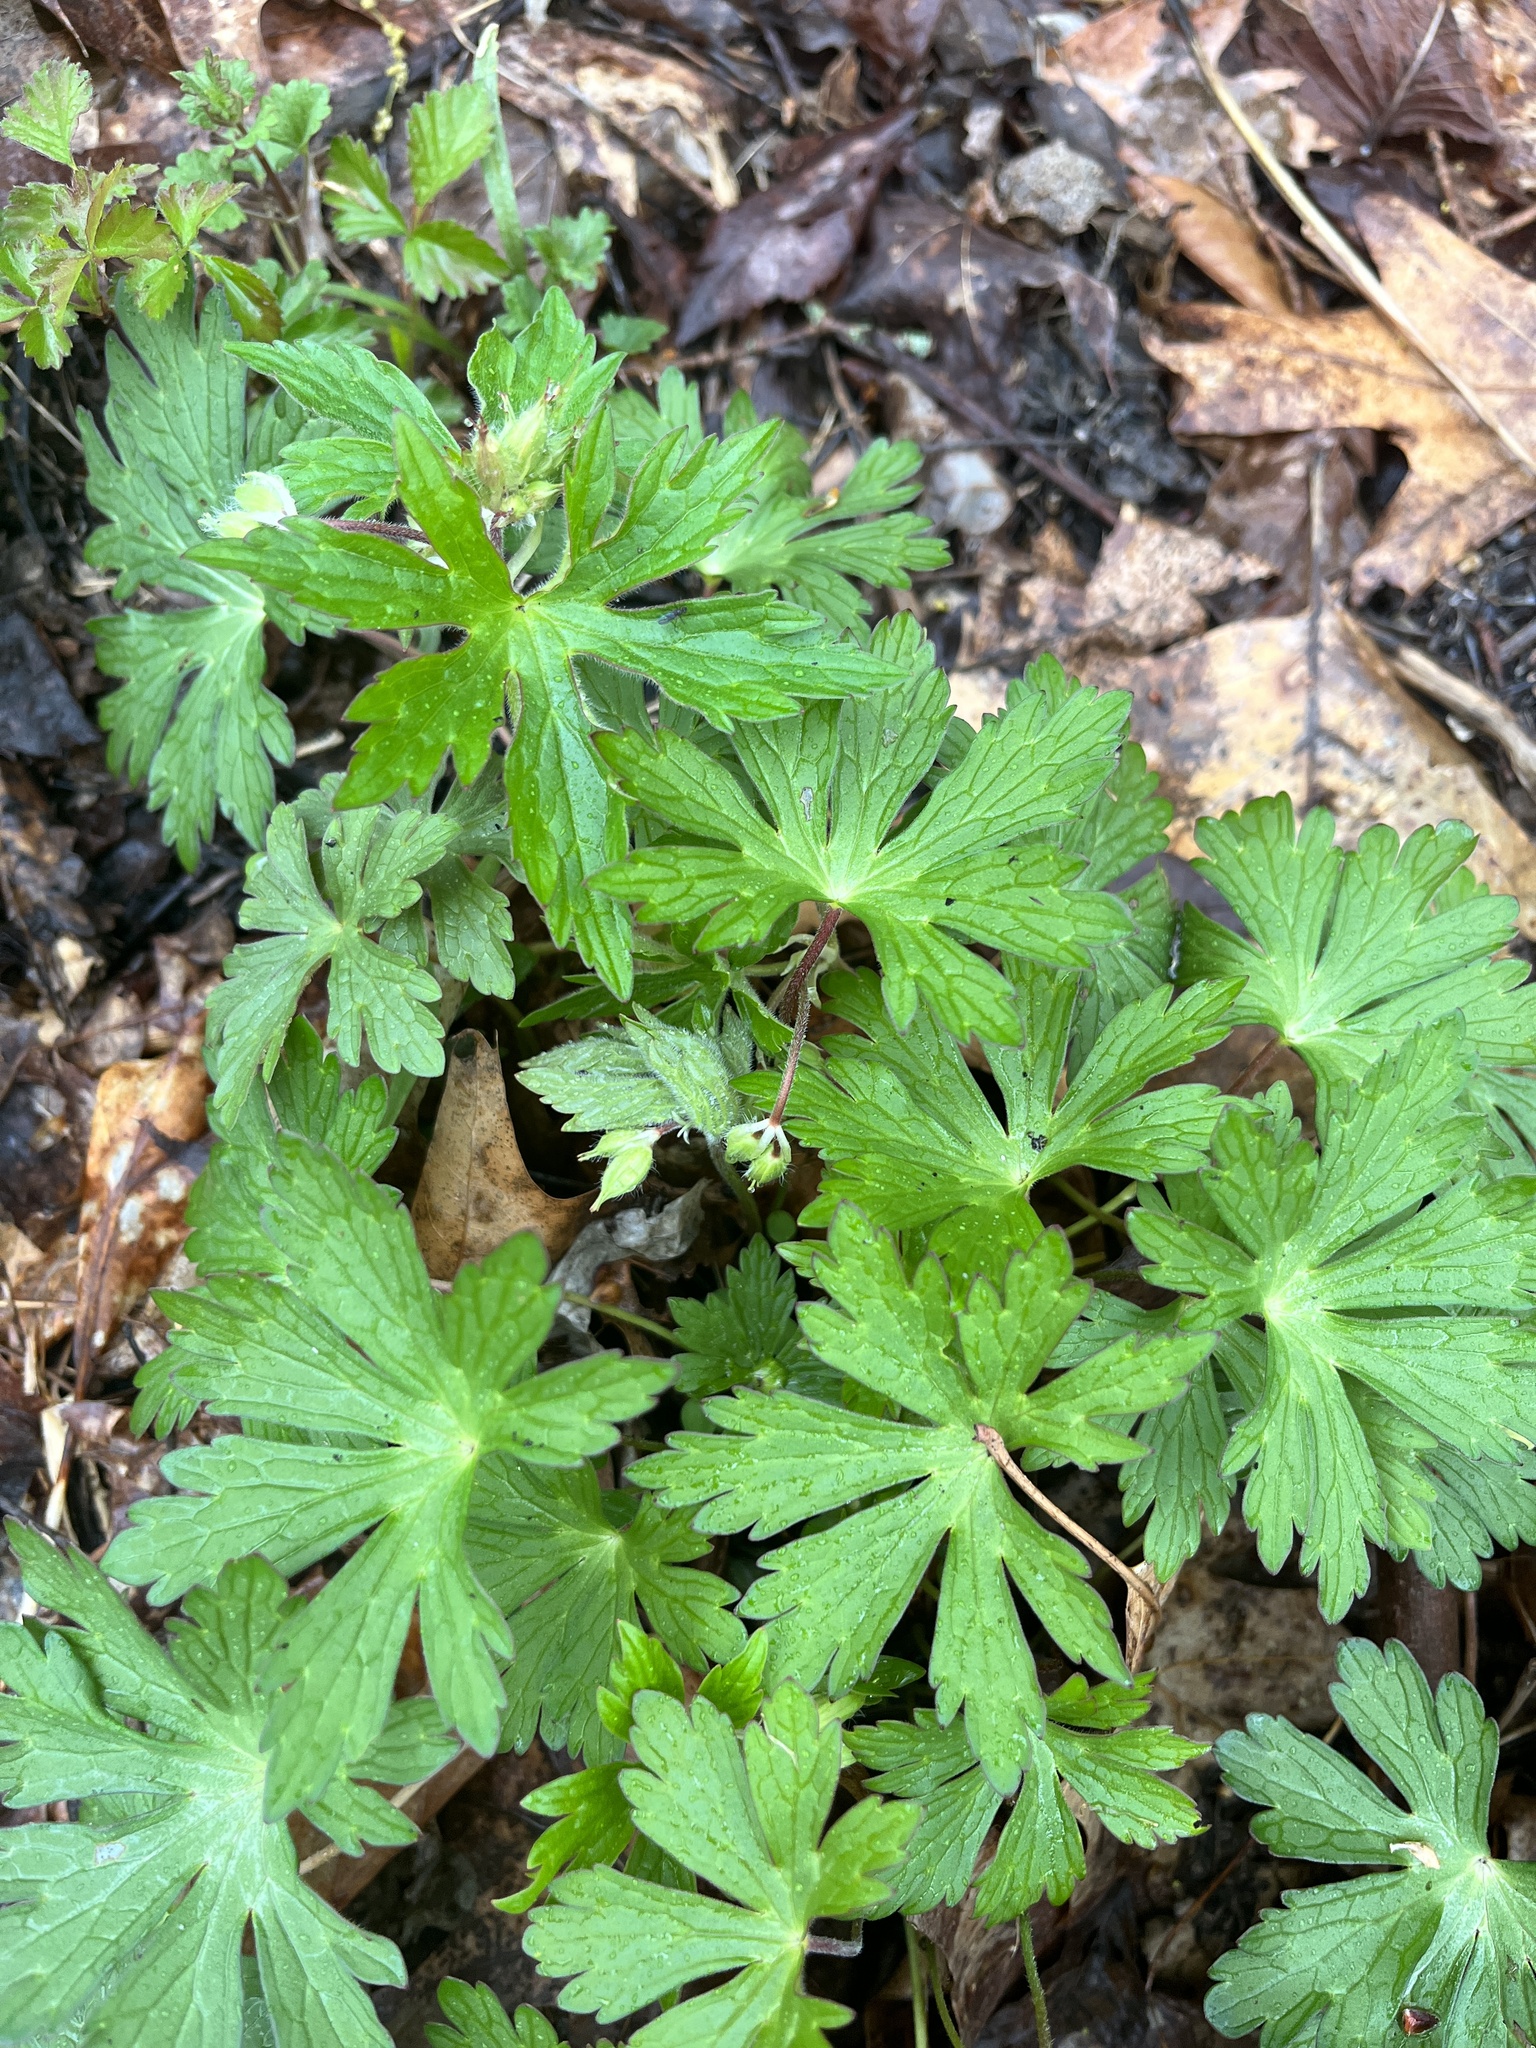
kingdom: Plantae
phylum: Tracheophyta
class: Magnoliopsida
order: Geraniales
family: Geraniaceae
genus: Geranium
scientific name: Geranium maculatum
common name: Spotted geranium
